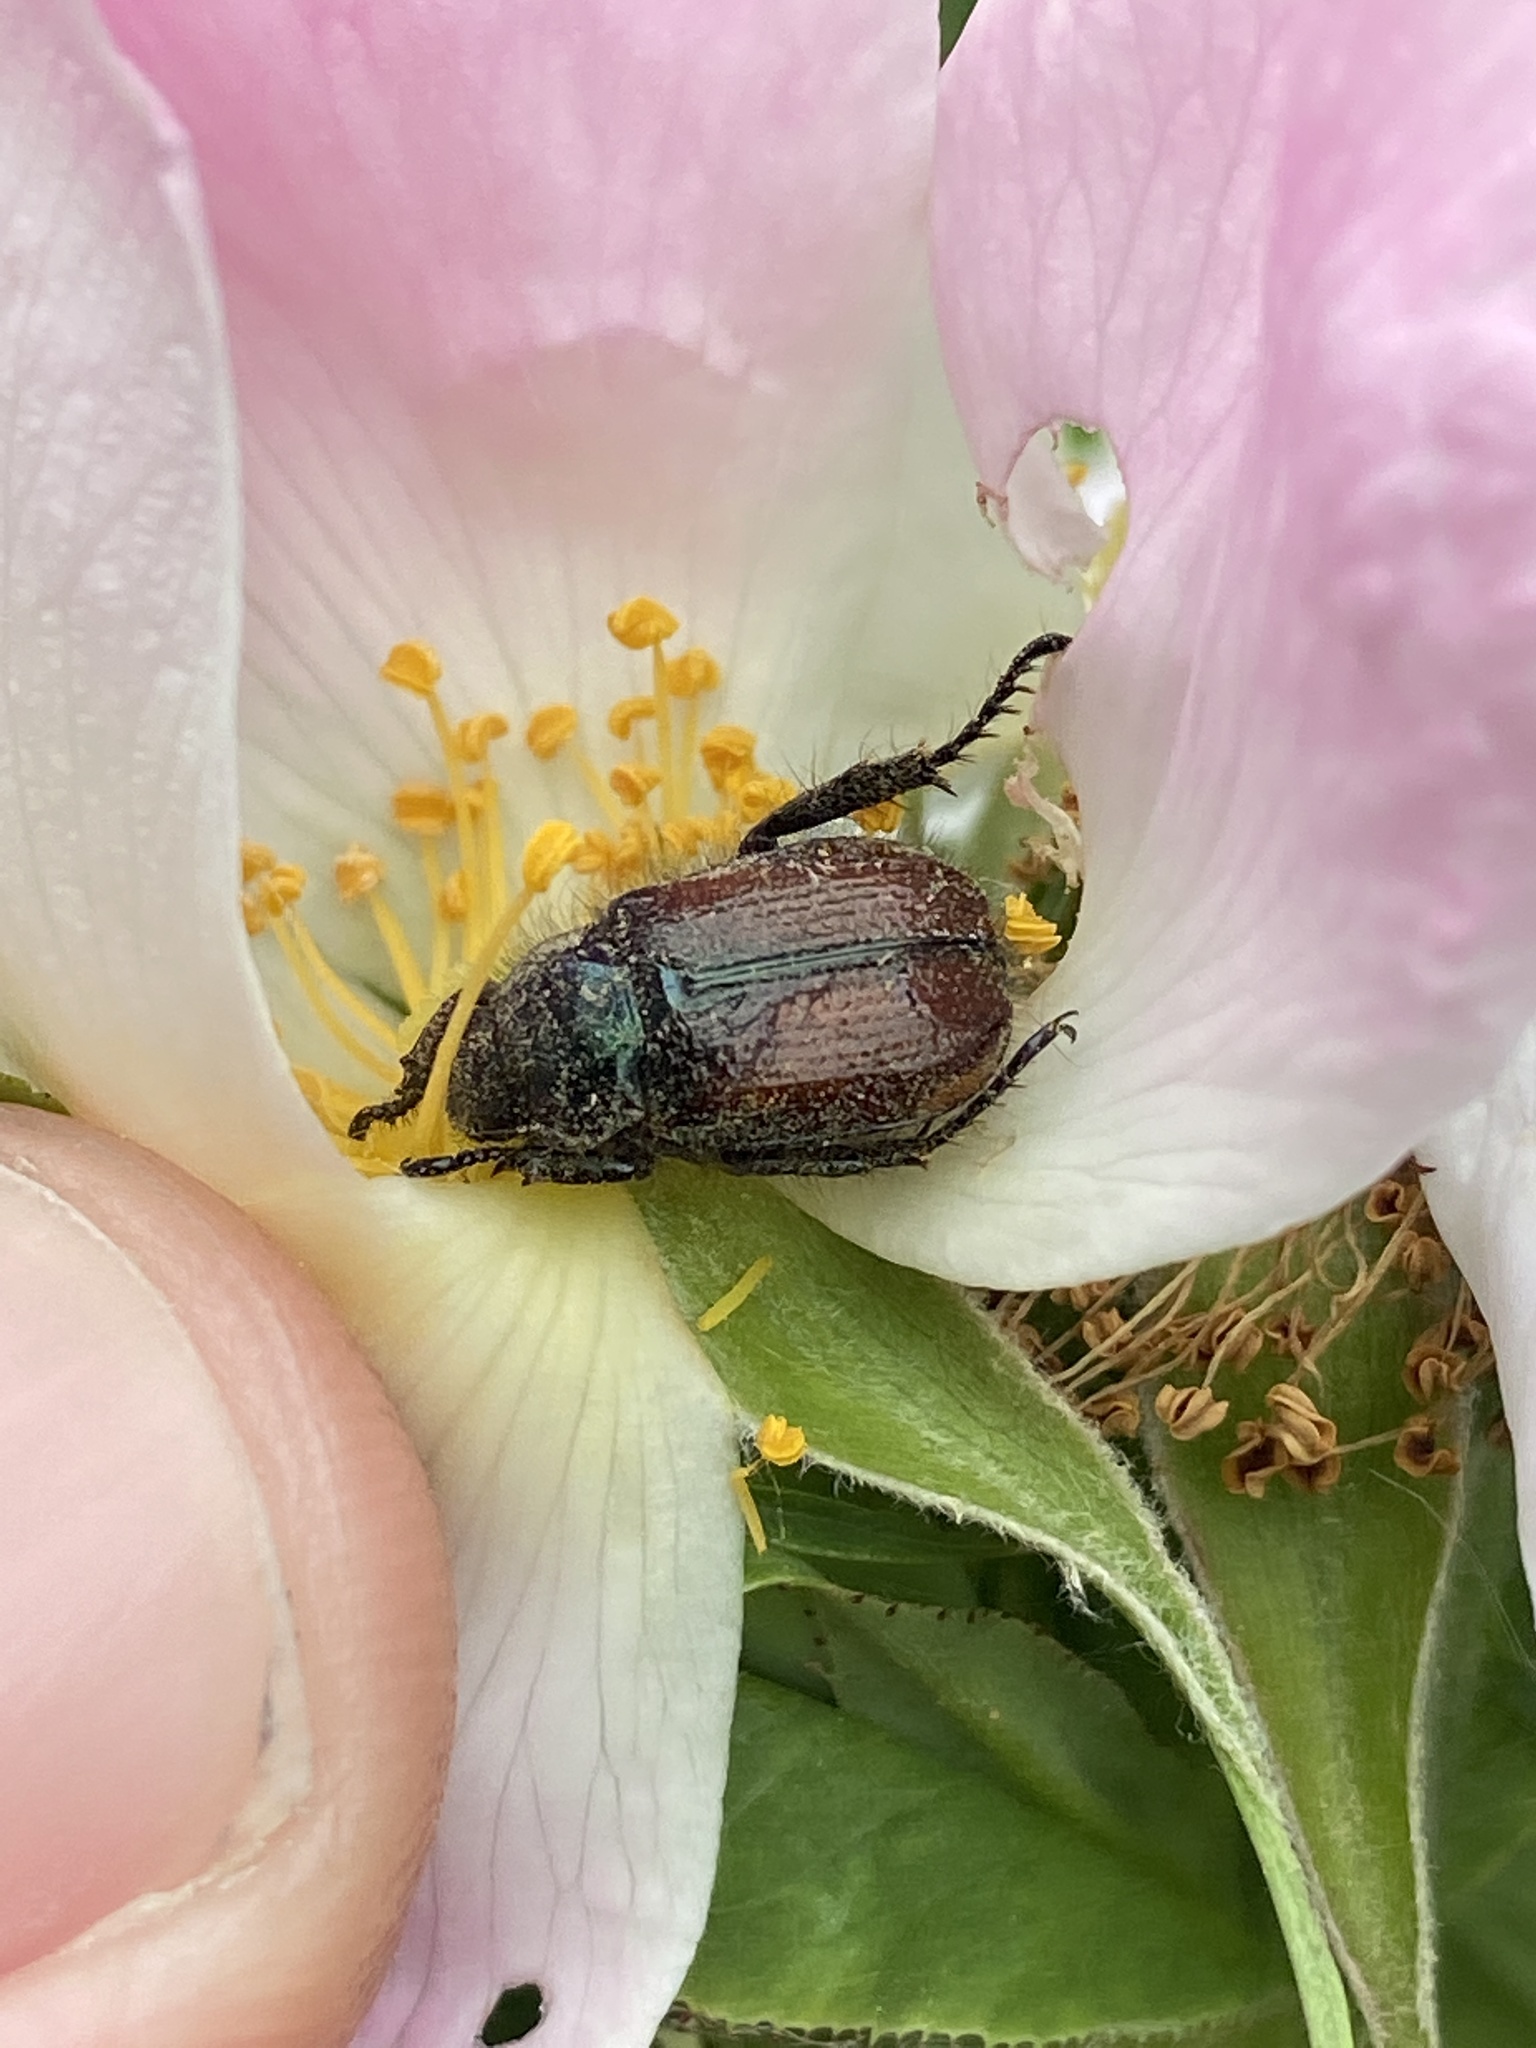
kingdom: Animalia
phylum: Arthropoda
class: Insecta
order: Coleoptera
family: Scarabaeidae
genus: Phyllopertha
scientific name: Phyllopertha horticola
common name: Garden chafer
